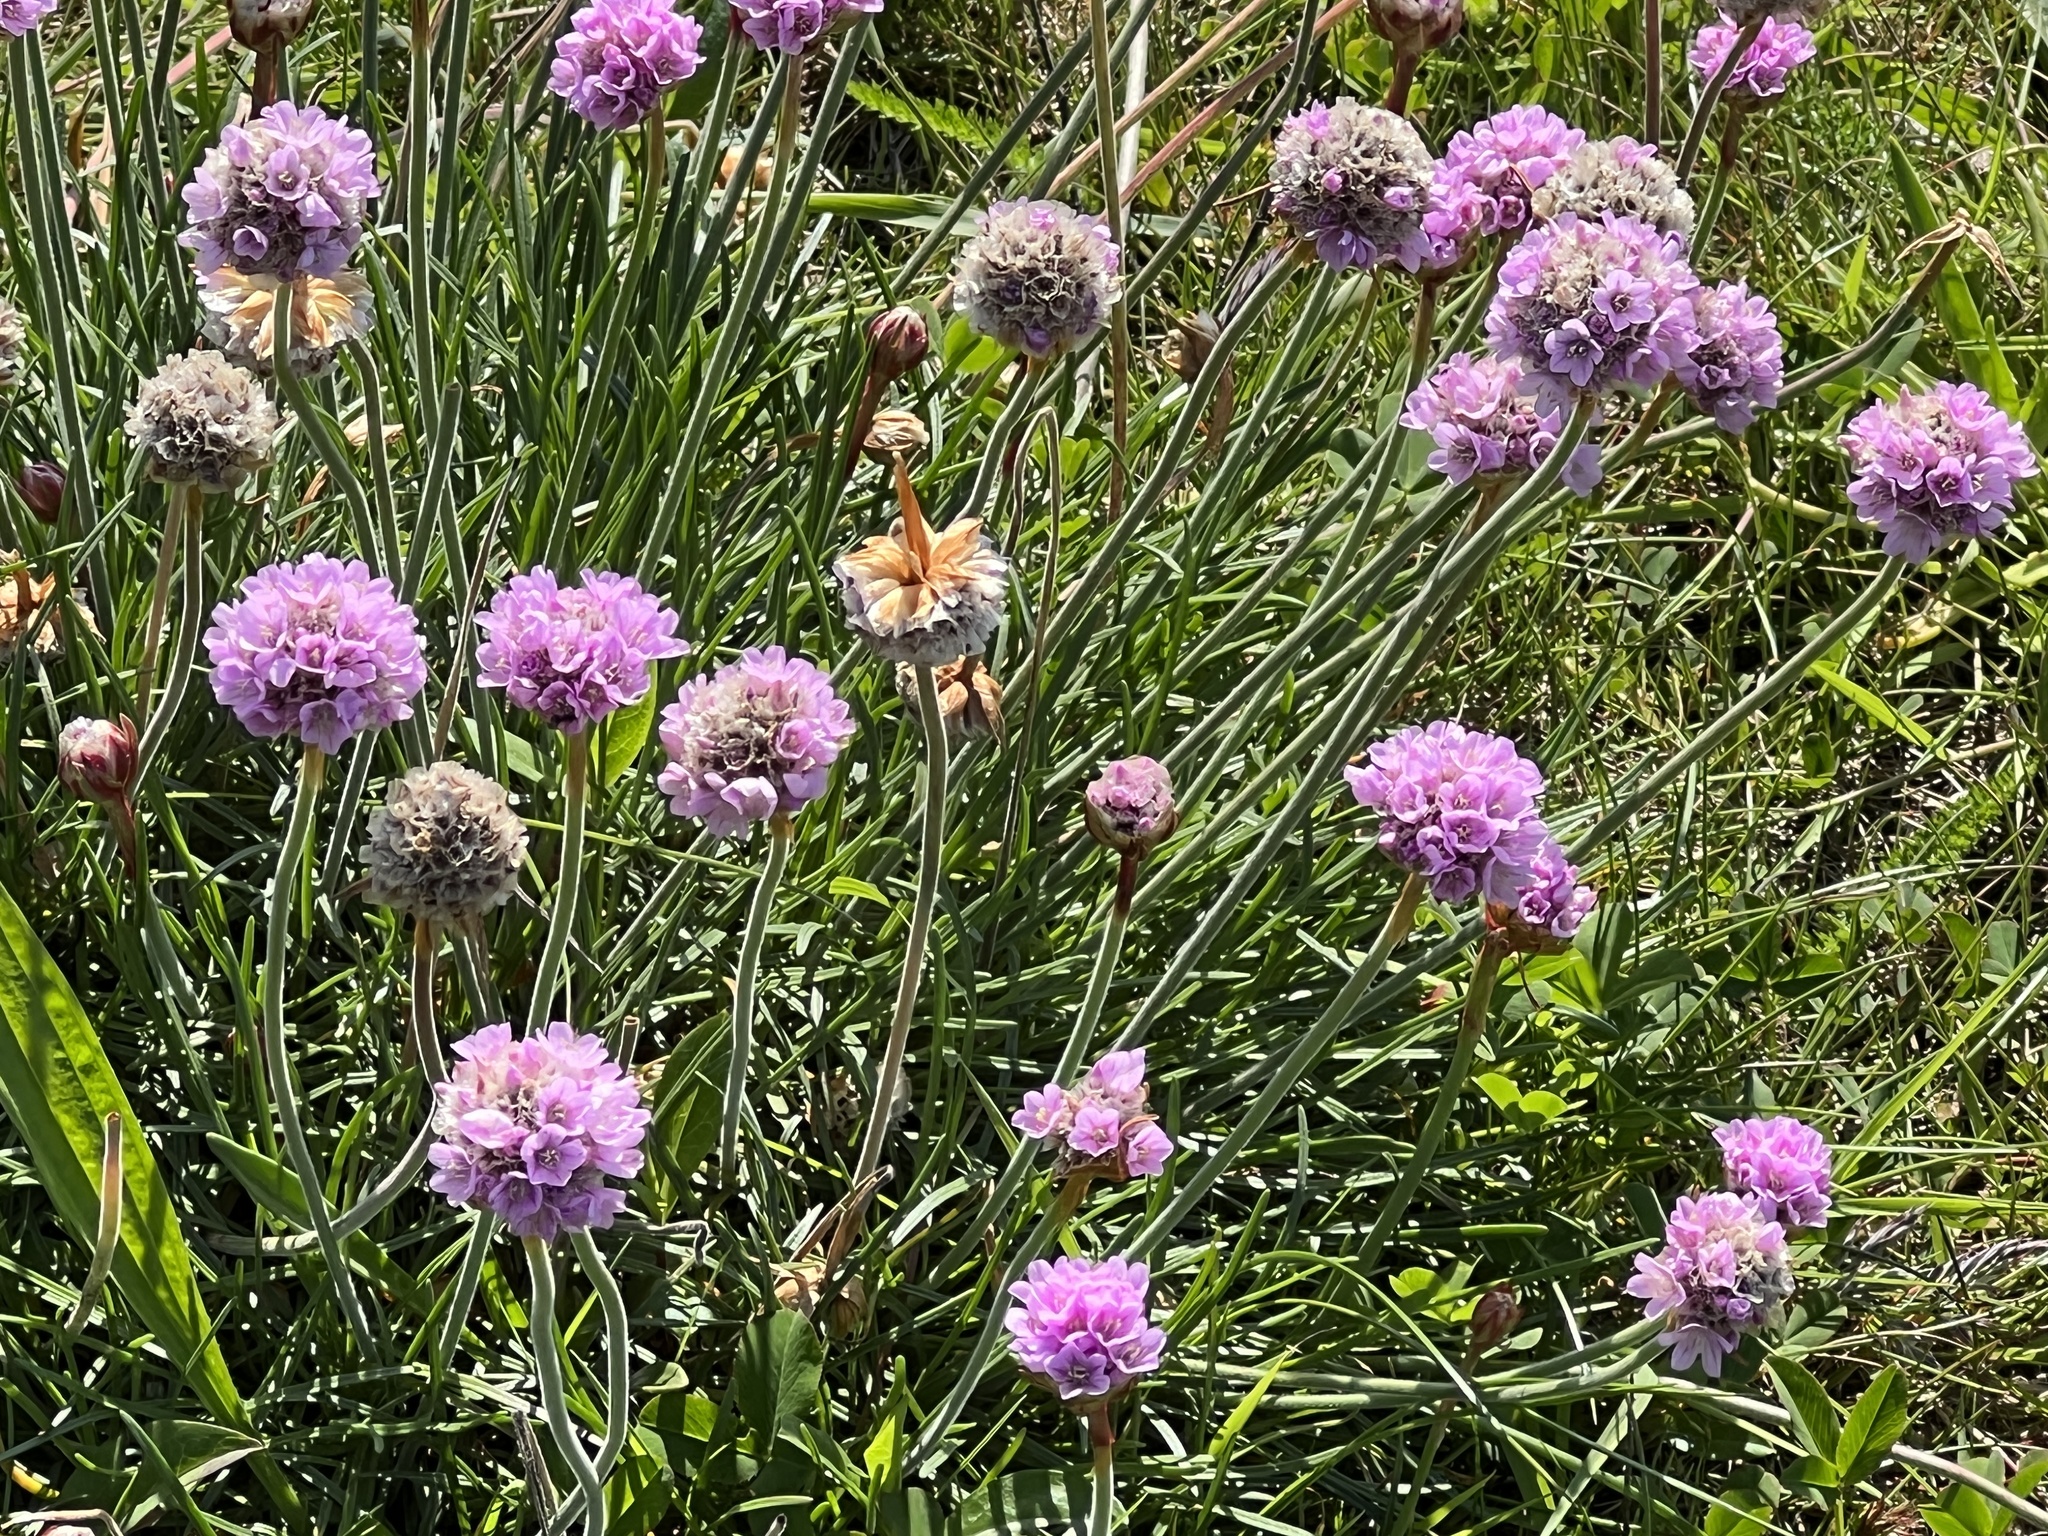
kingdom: Plantae
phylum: Tracheophyta
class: Magnoliopsida
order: Caryophyllales
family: Plumbaginaceae
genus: Armeria
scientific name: Armeria maritima
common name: Thrift
